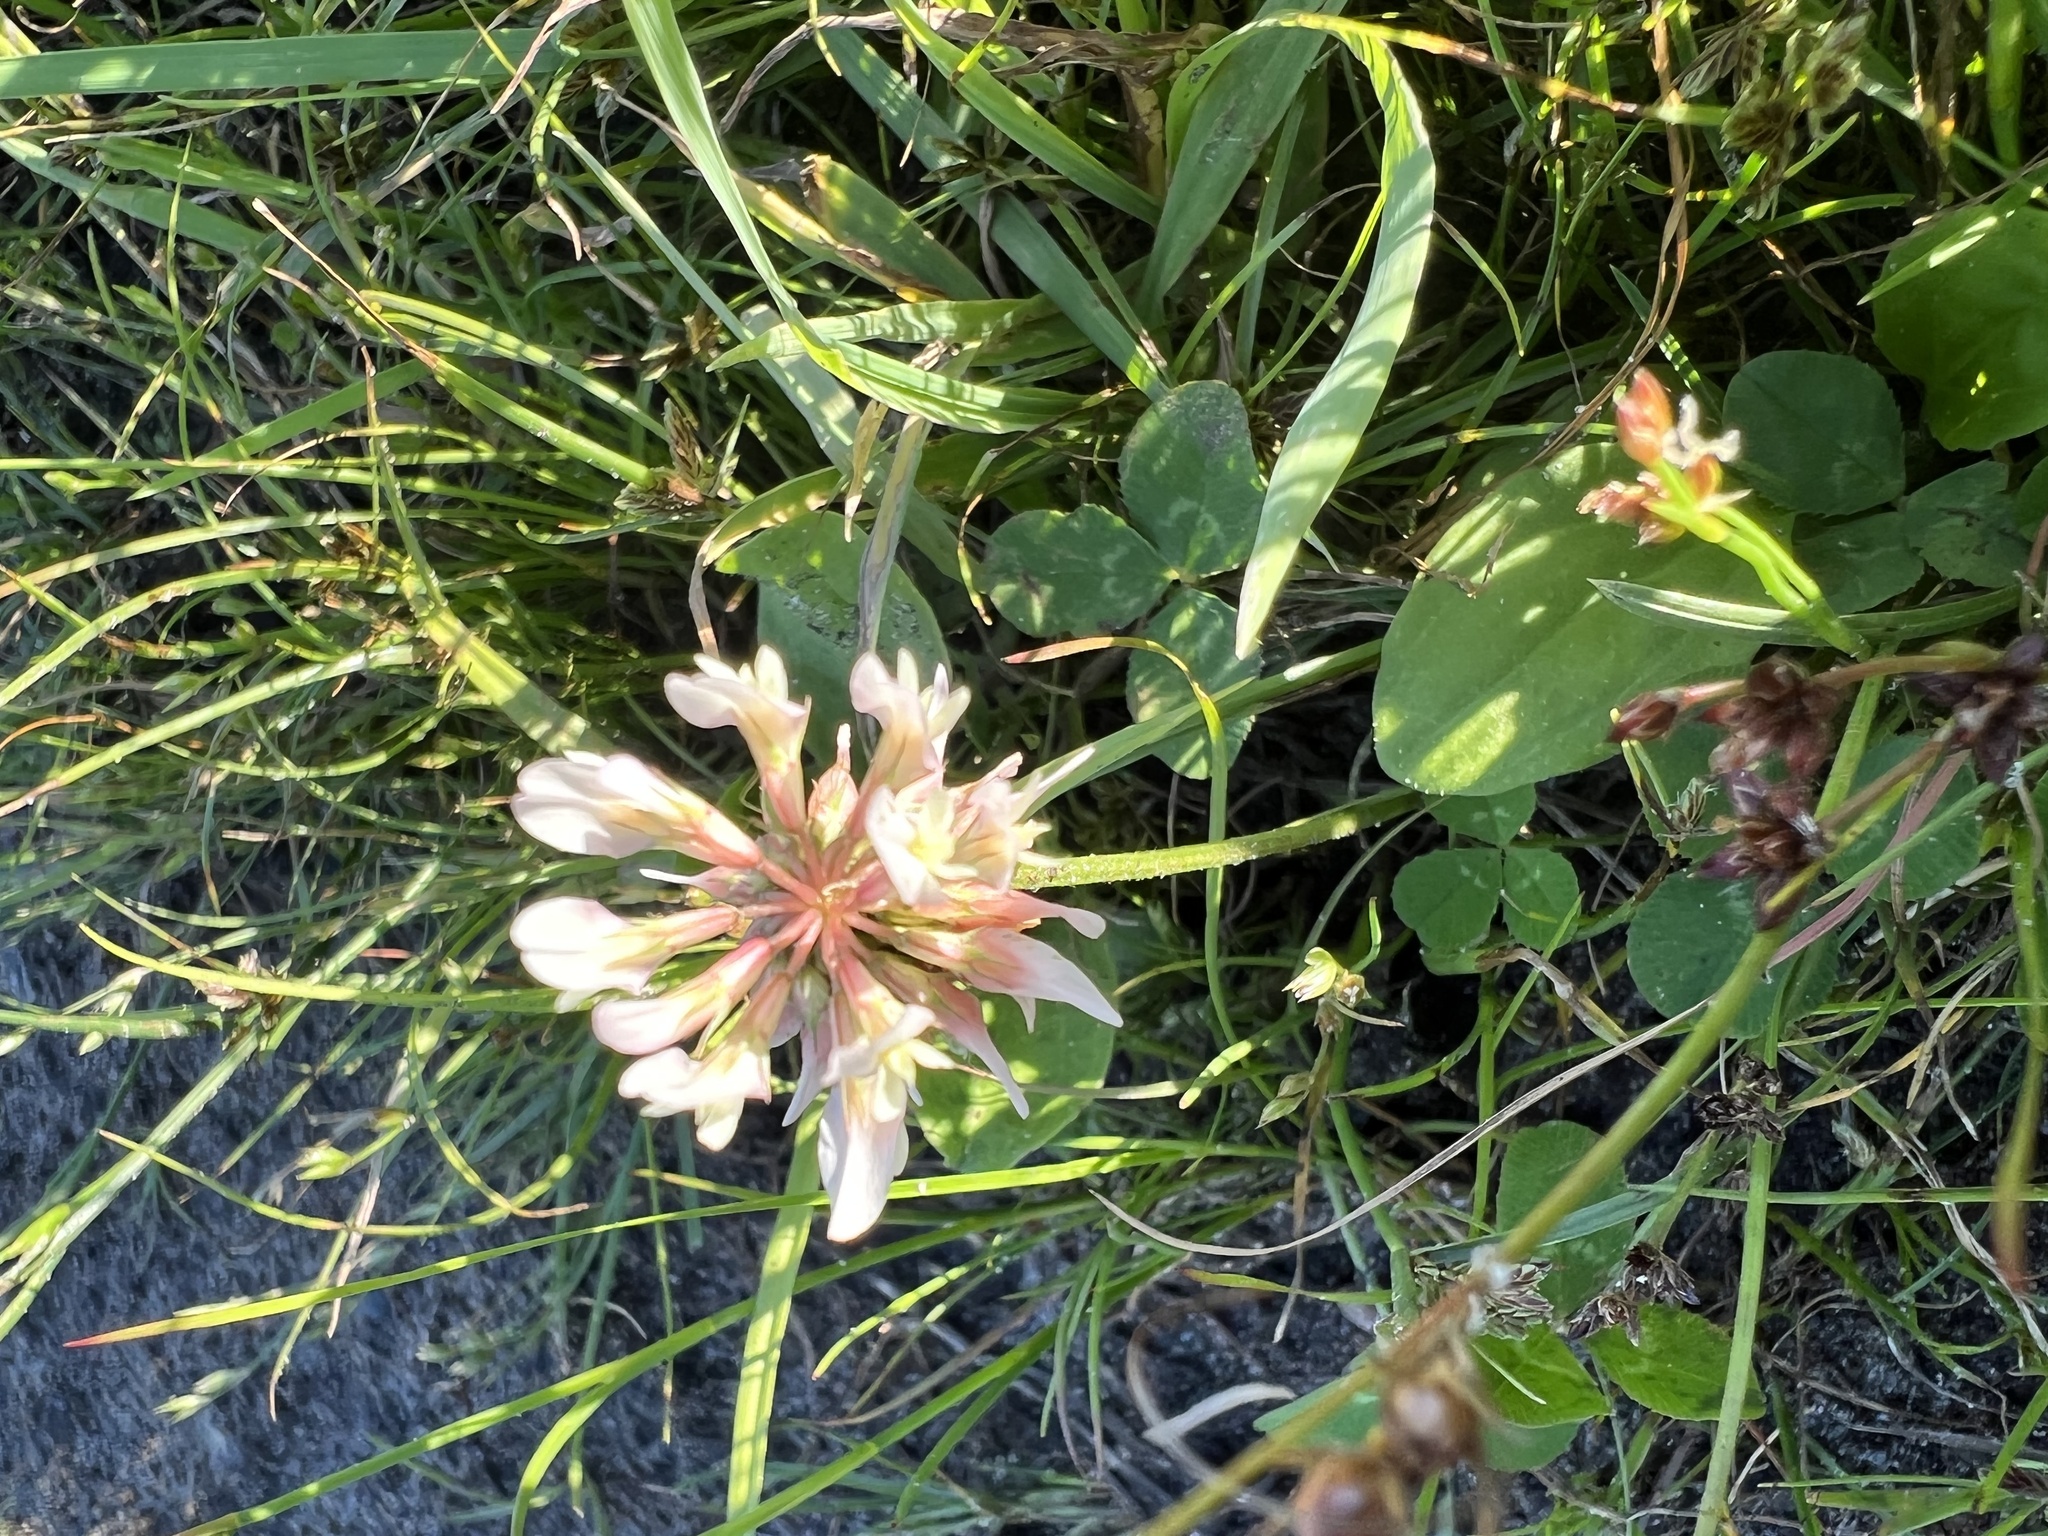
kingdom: Plantae
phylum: Tracheophyta
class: Magnoliopsida
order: Fabales
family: Fabaceae
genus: Trifolium
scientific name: Trifolium repens
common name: White clover
